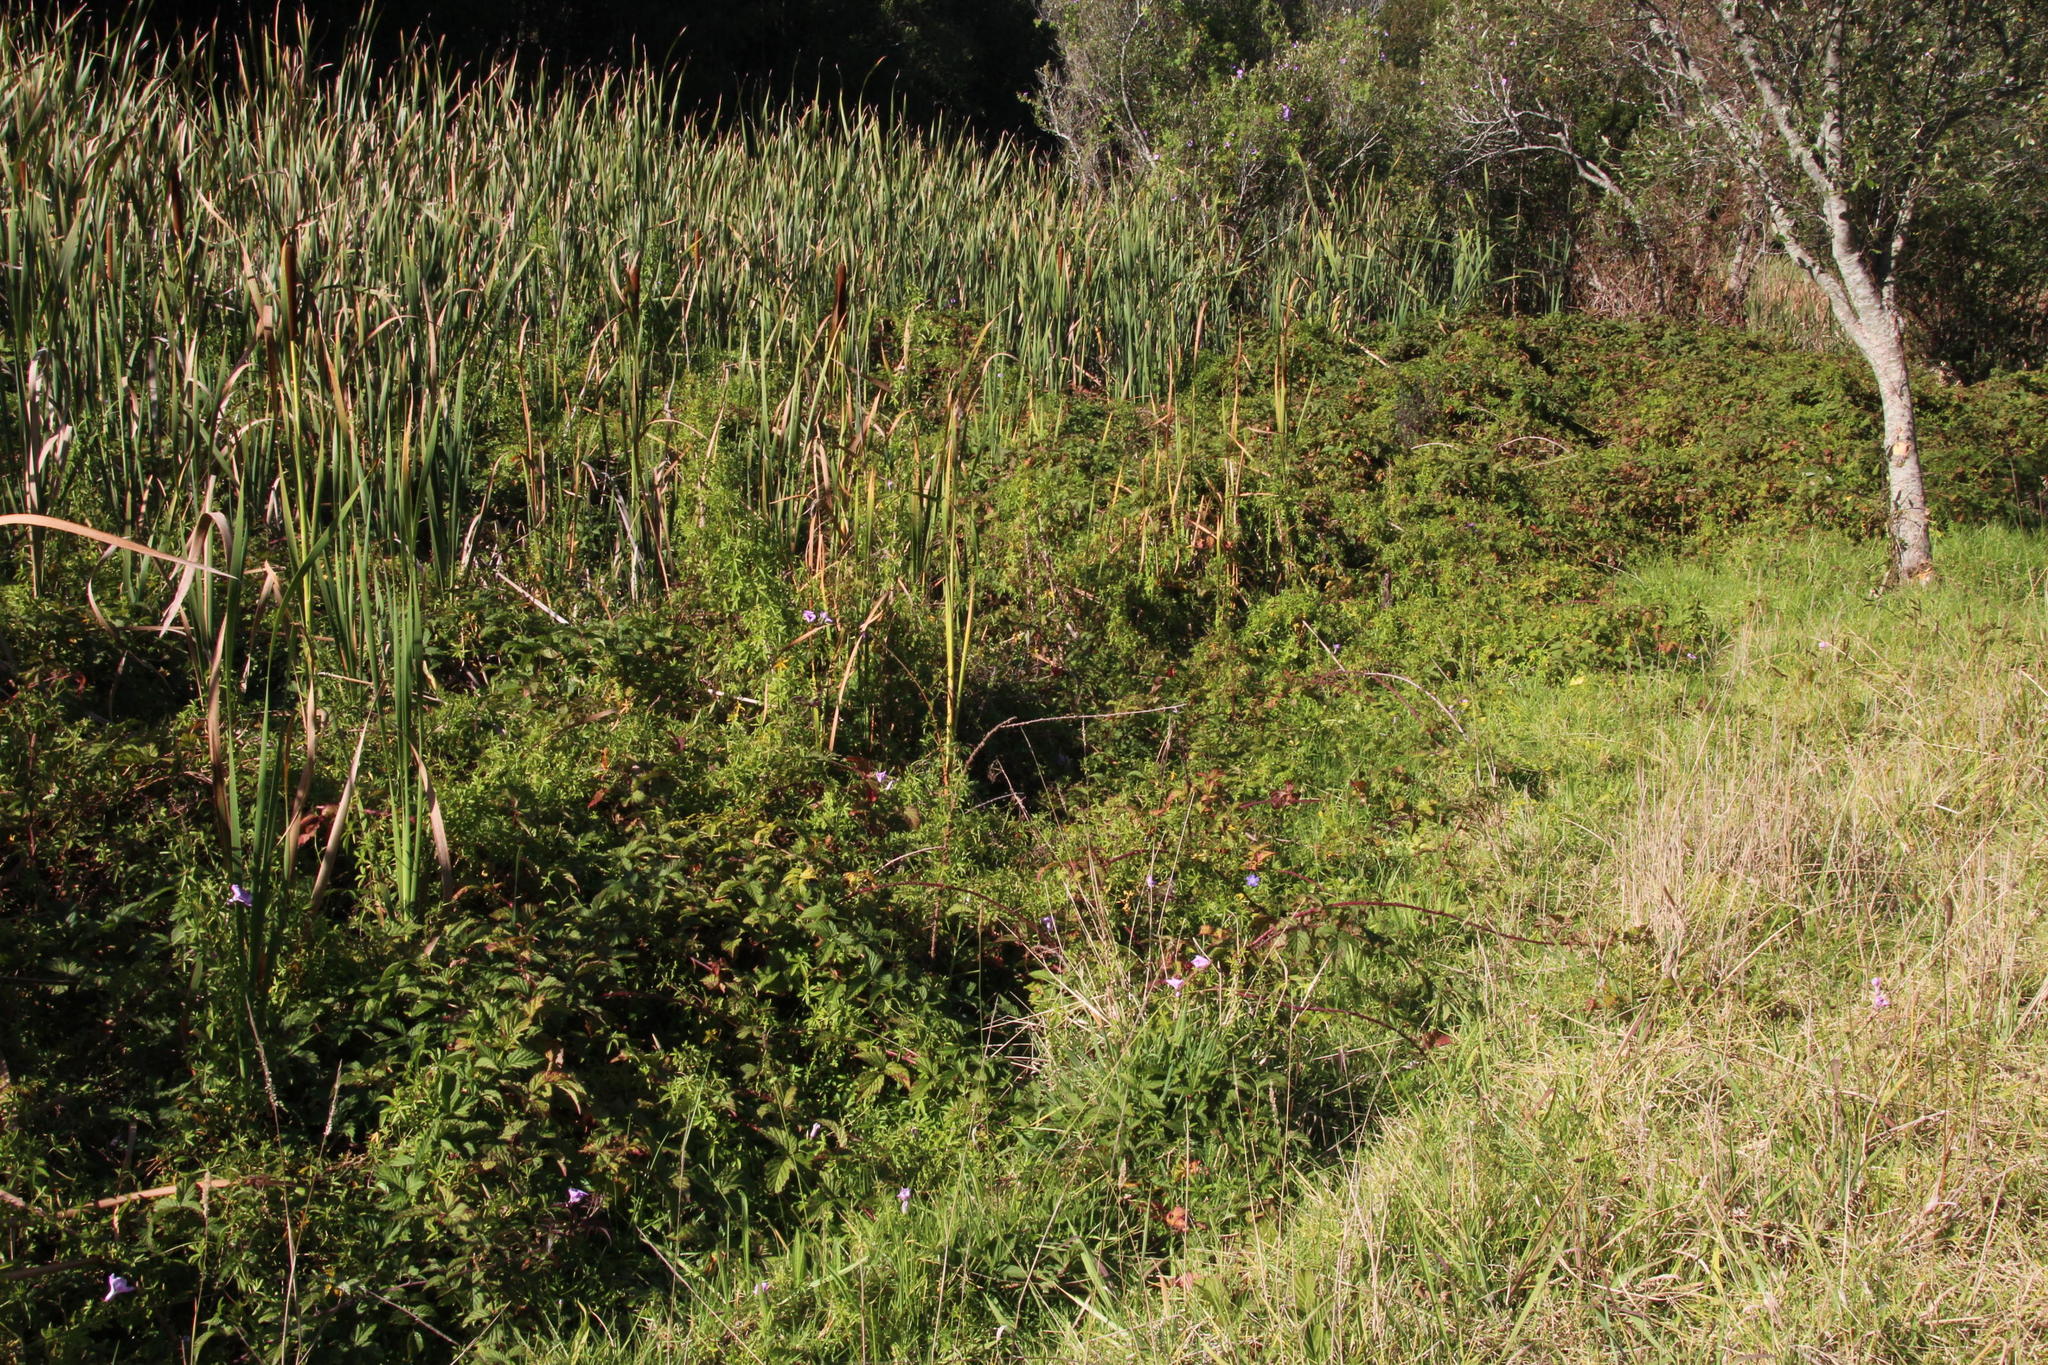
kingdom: Plantae
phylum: Tracheophyta
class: Magnoliopsida
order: Solanales
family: Convolvulaceae
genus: Ipomoea
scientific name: Ipomoea cairica
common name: Mile a minute vine
